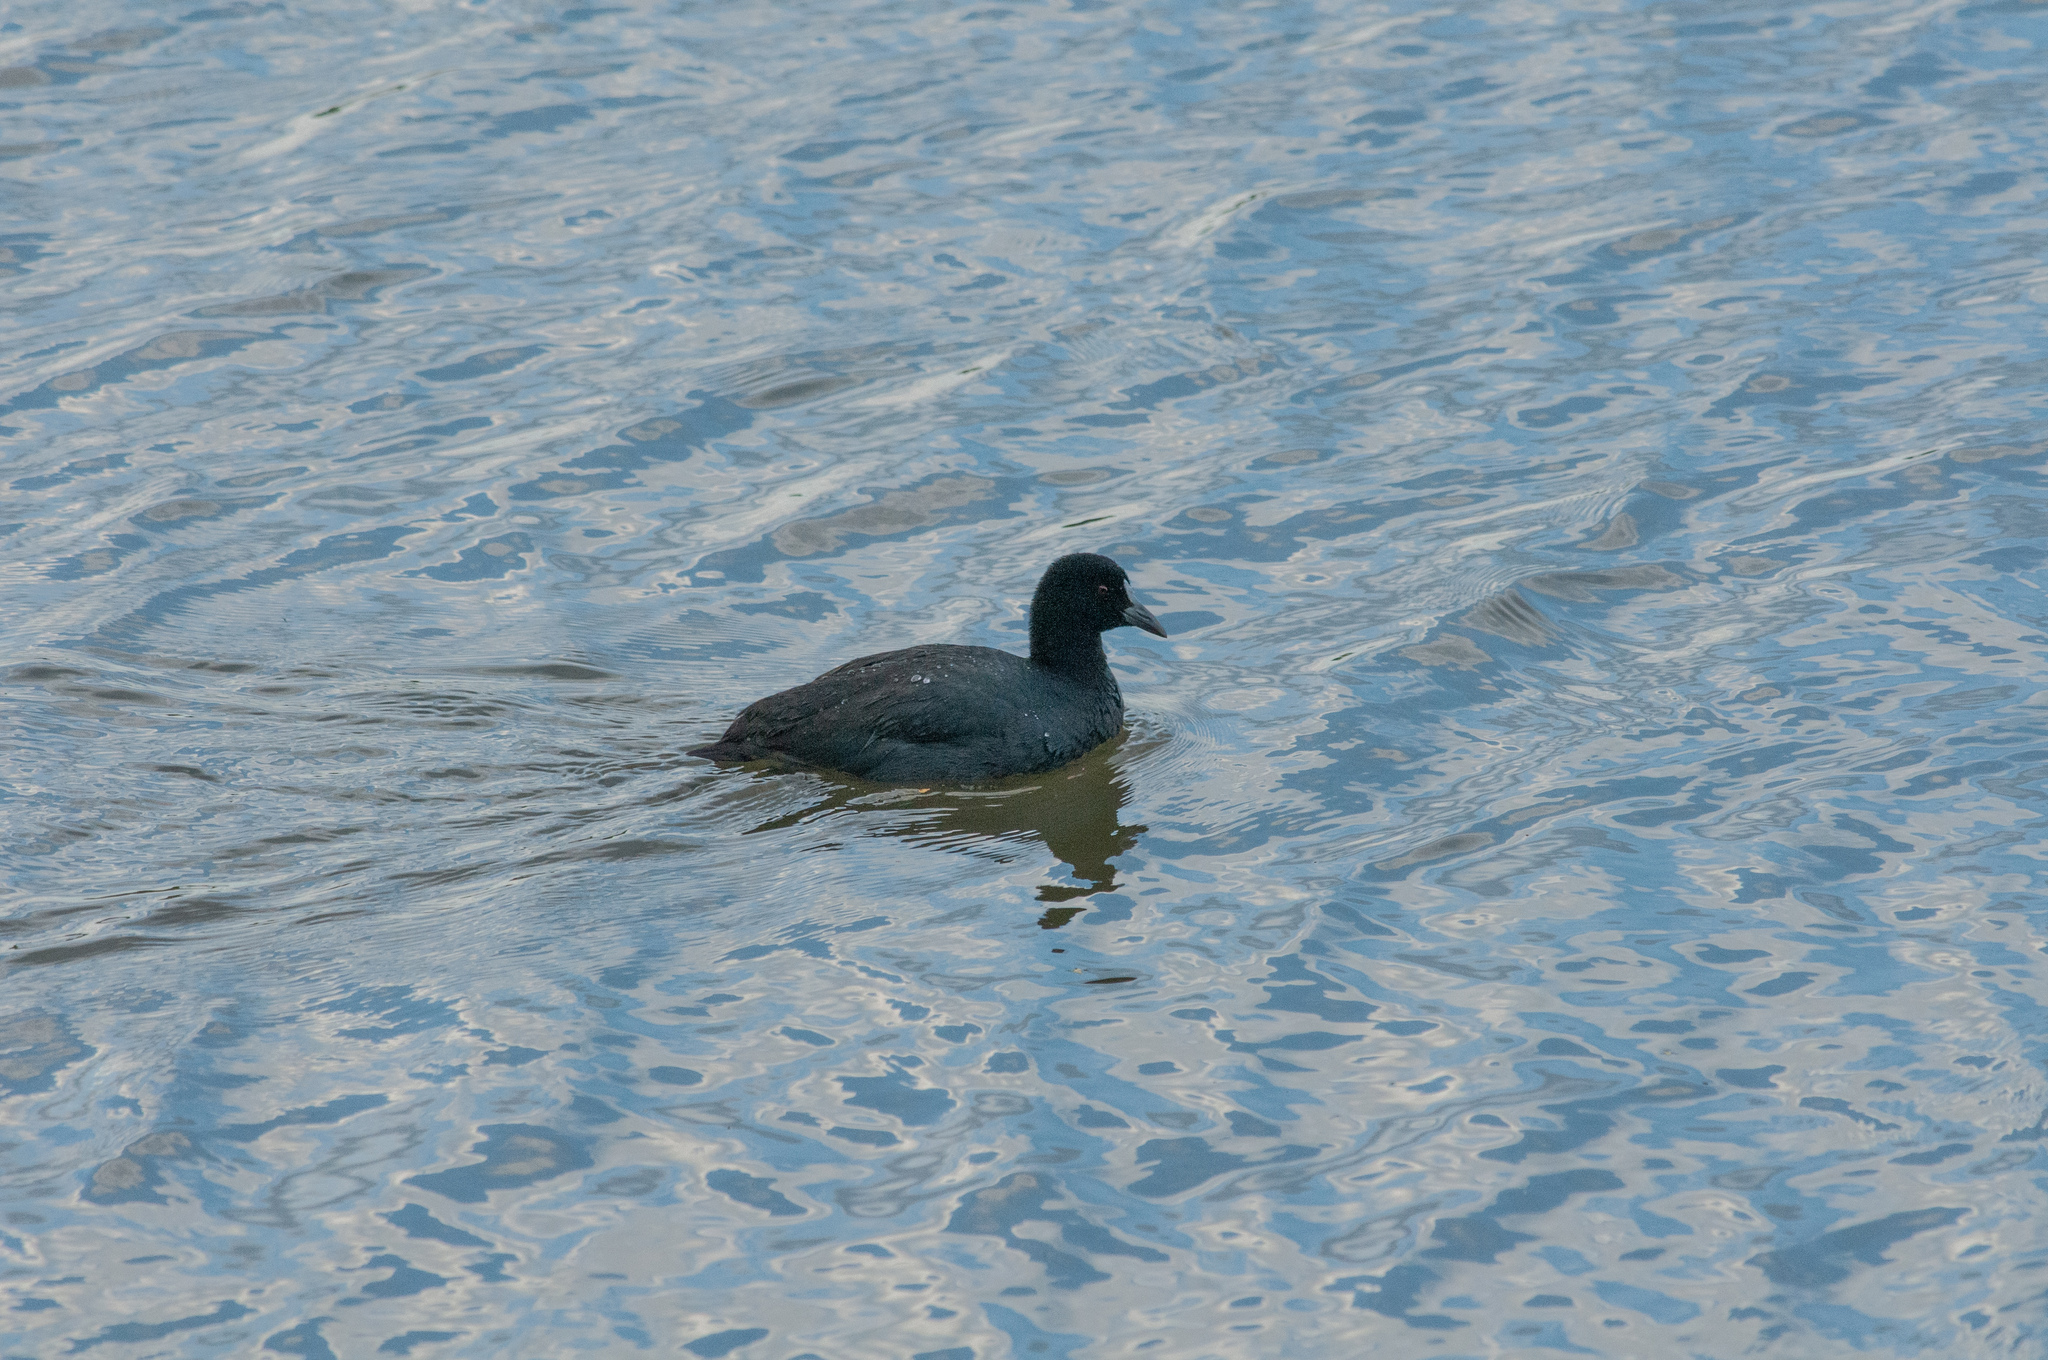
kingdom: Animalia
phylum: Chordata
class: Aves
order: Gruiformes
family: Rallidae
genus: Fulica
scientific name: Fulica atra
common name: Eurasian coot
